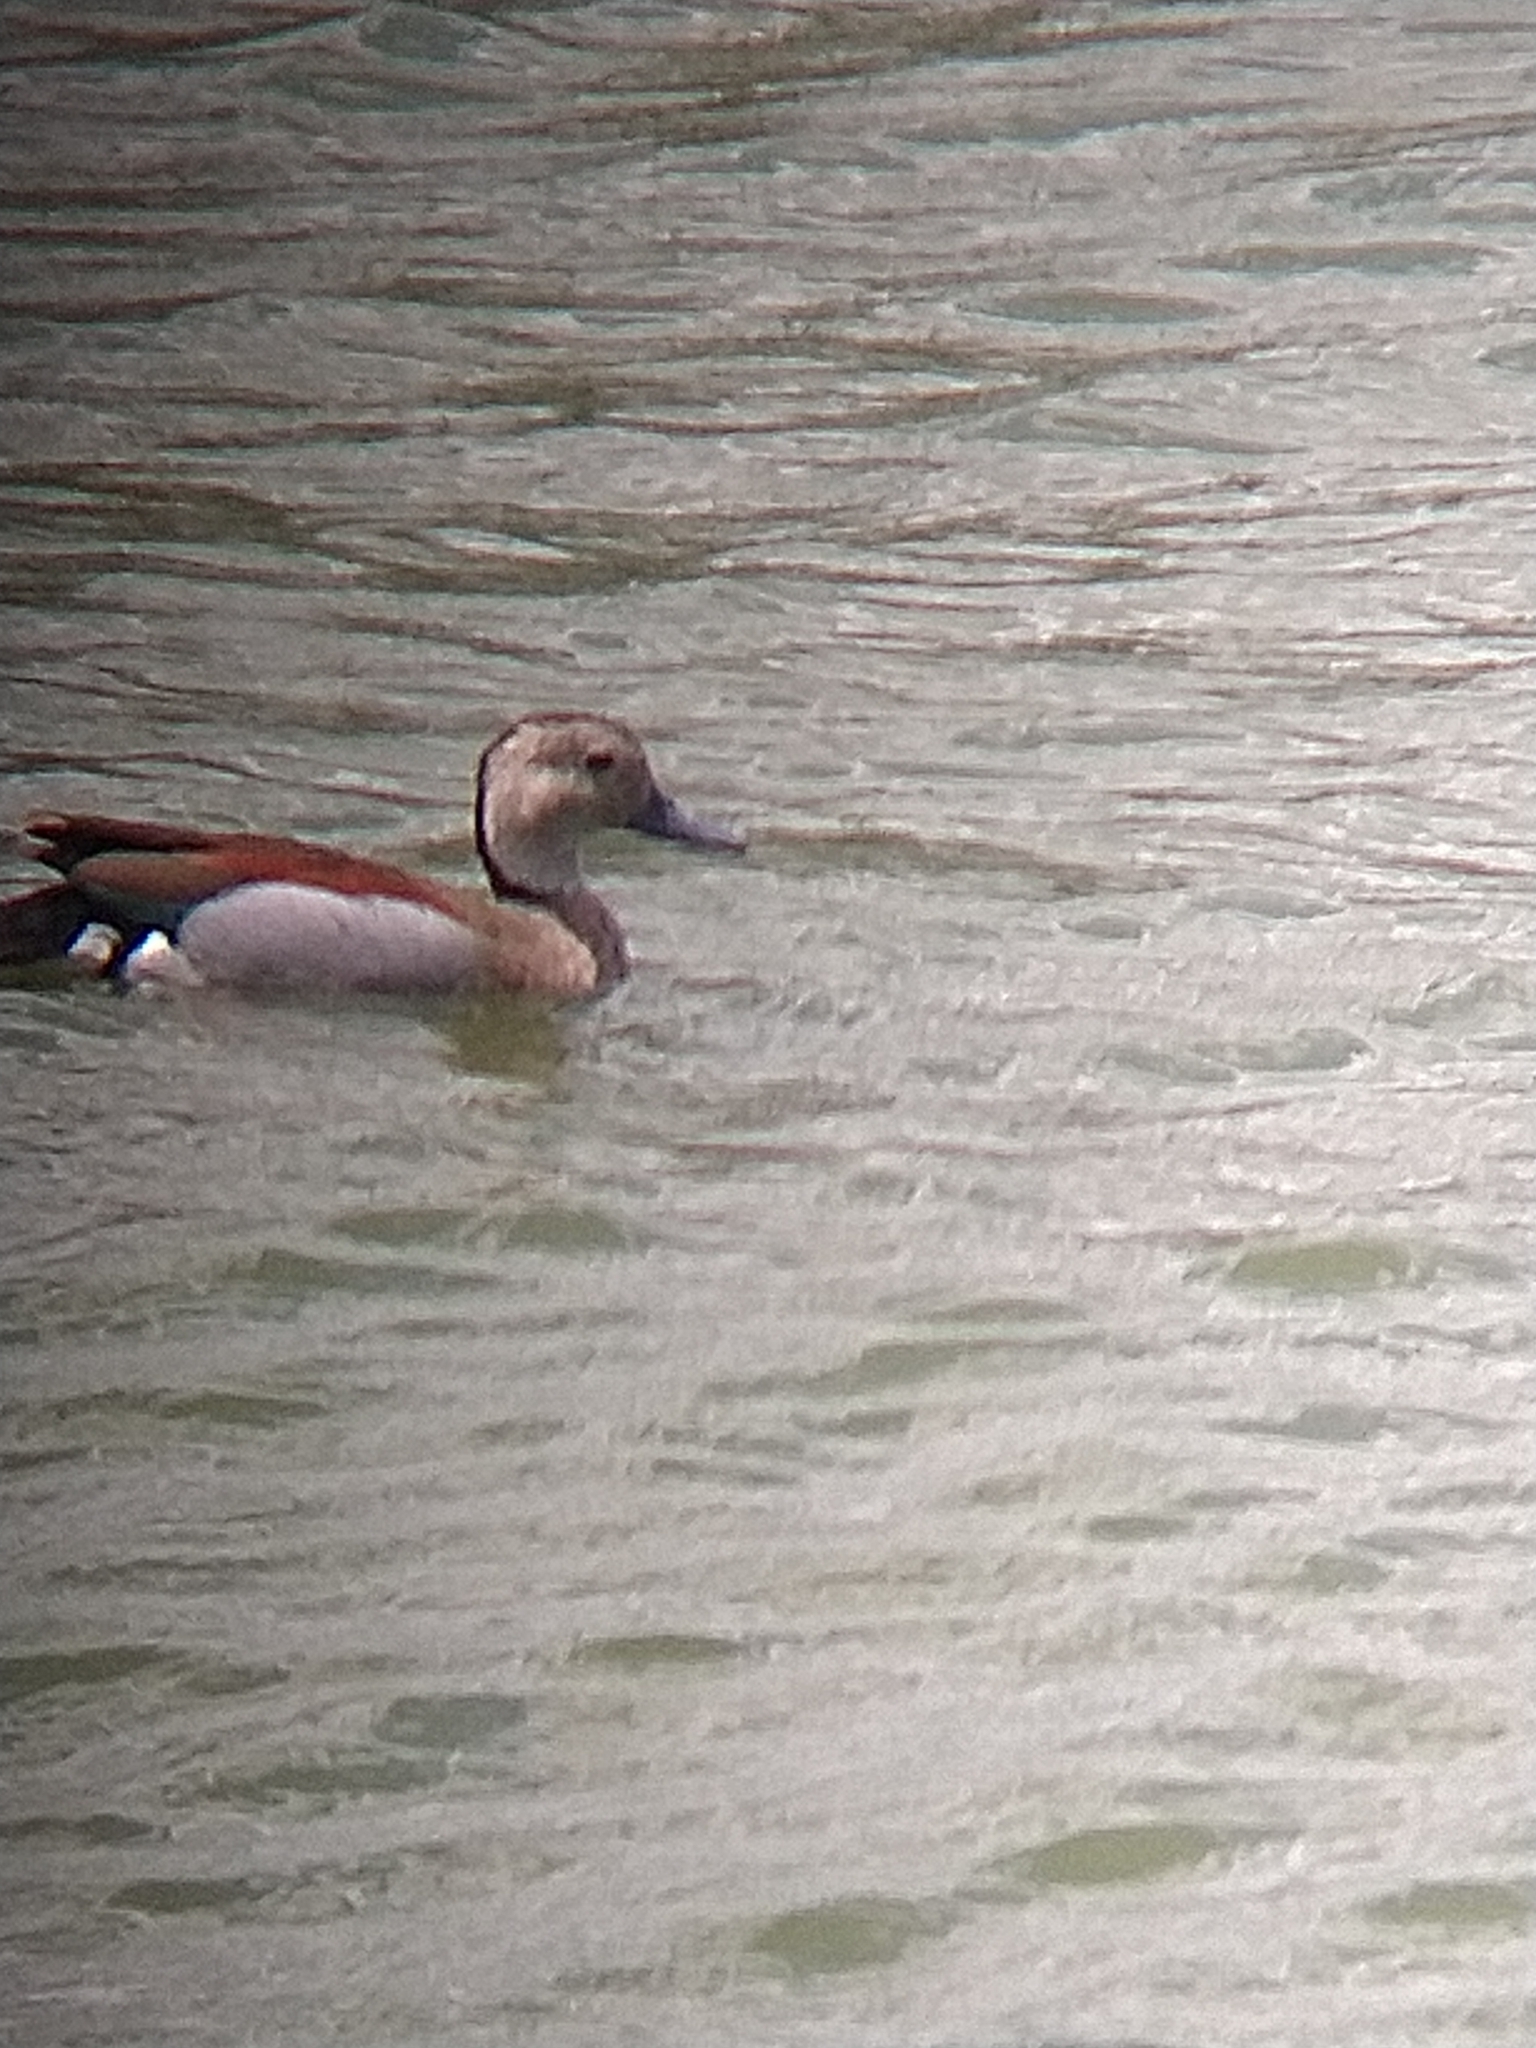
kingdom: Animalia
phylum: Chordata
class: Aves
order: Anseriformes
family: Anatidae
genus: Callonetta
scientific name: Callonetta leucophrys
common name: Ringed teal
